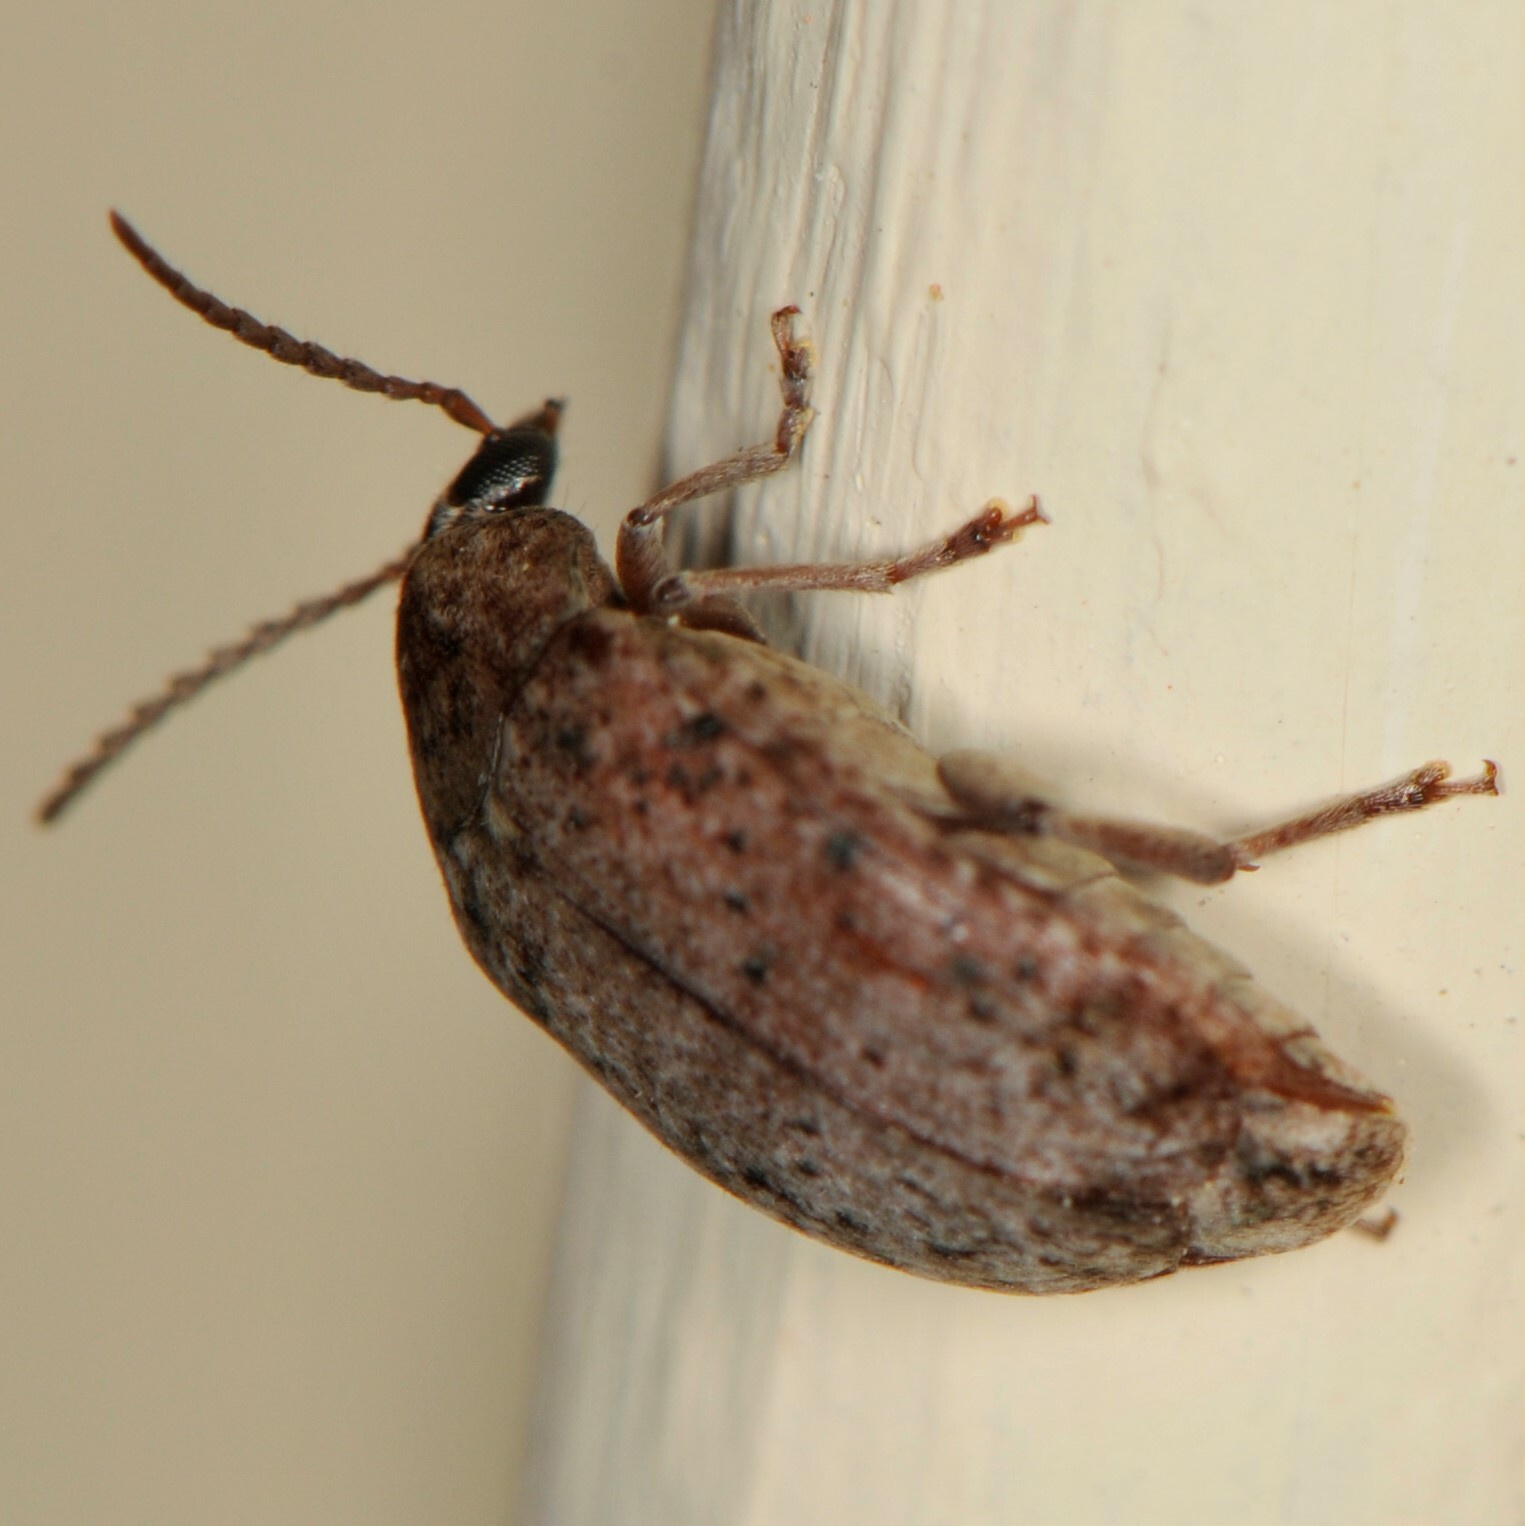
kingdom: Animalia
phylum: Arthropoda
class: Insecta
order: Coleoptera
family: Chrysomelidae
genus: Amblycerus
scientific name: Amblycerus robiniae
